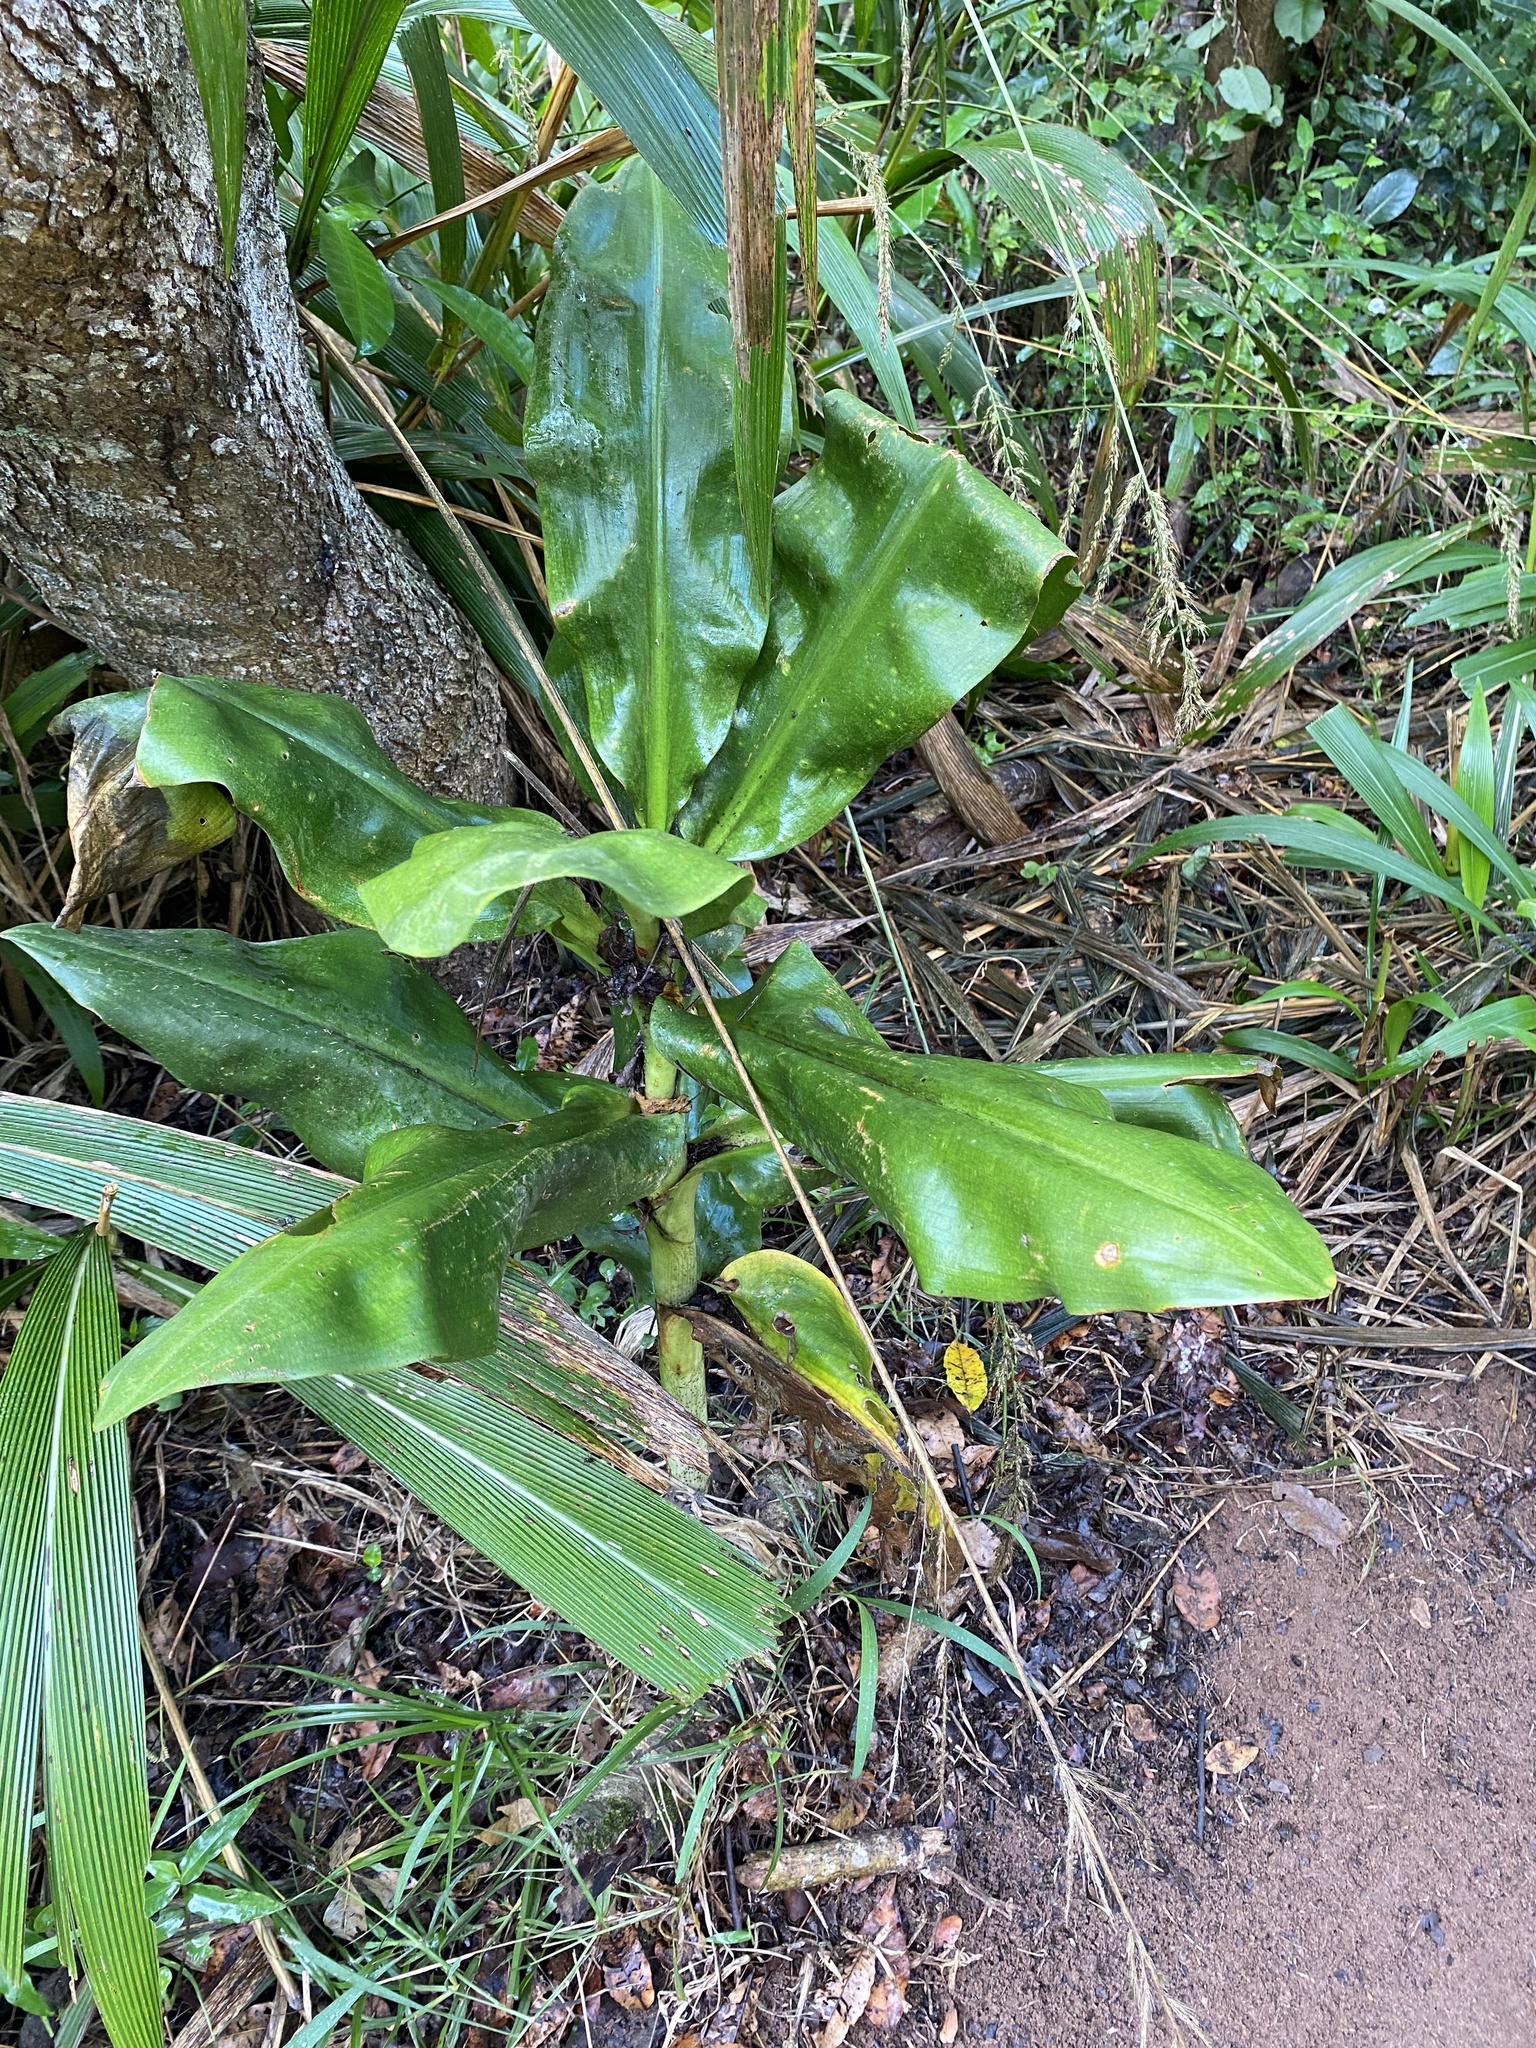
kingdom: Plantae
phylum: Tracheophyta
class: Liliopsida
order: Asparagales
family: Amaryllidaceae
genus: Scadoxus
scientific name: Scadoxus puniceus
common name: Royal-paintbrush
